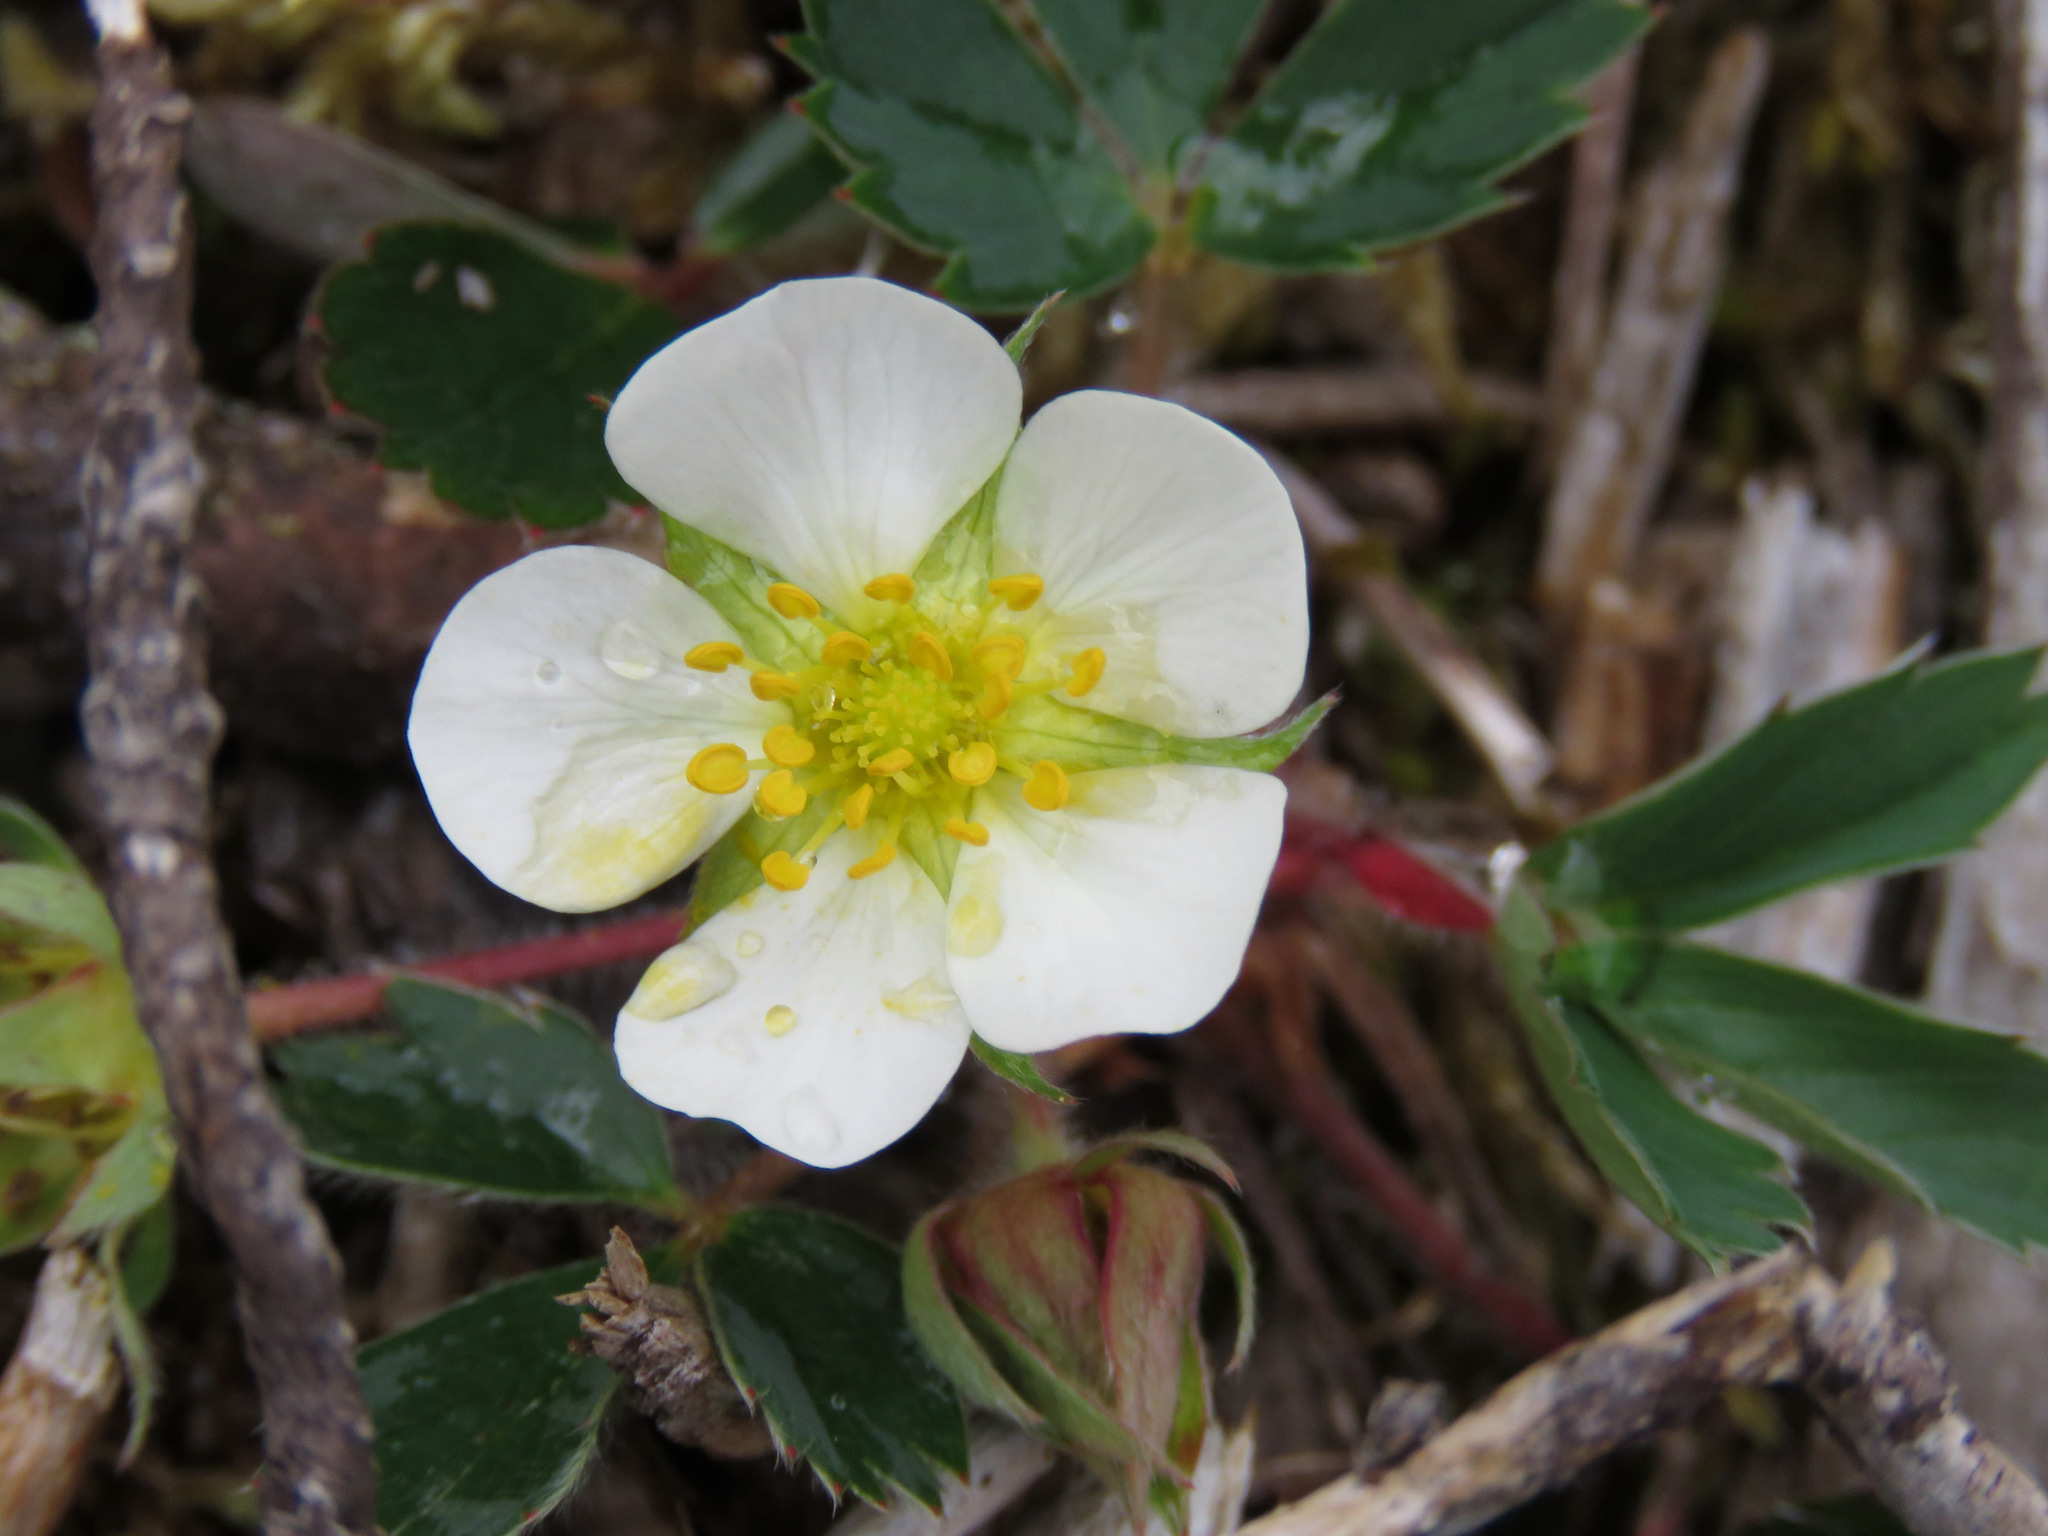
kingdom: Plantae
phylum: Tracheophyta
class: Magnoliopsida
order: Rosales
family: Rosaceae
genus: Fragaria
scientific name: Fragaria virginiana
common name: Thickleaved wild strawberry
